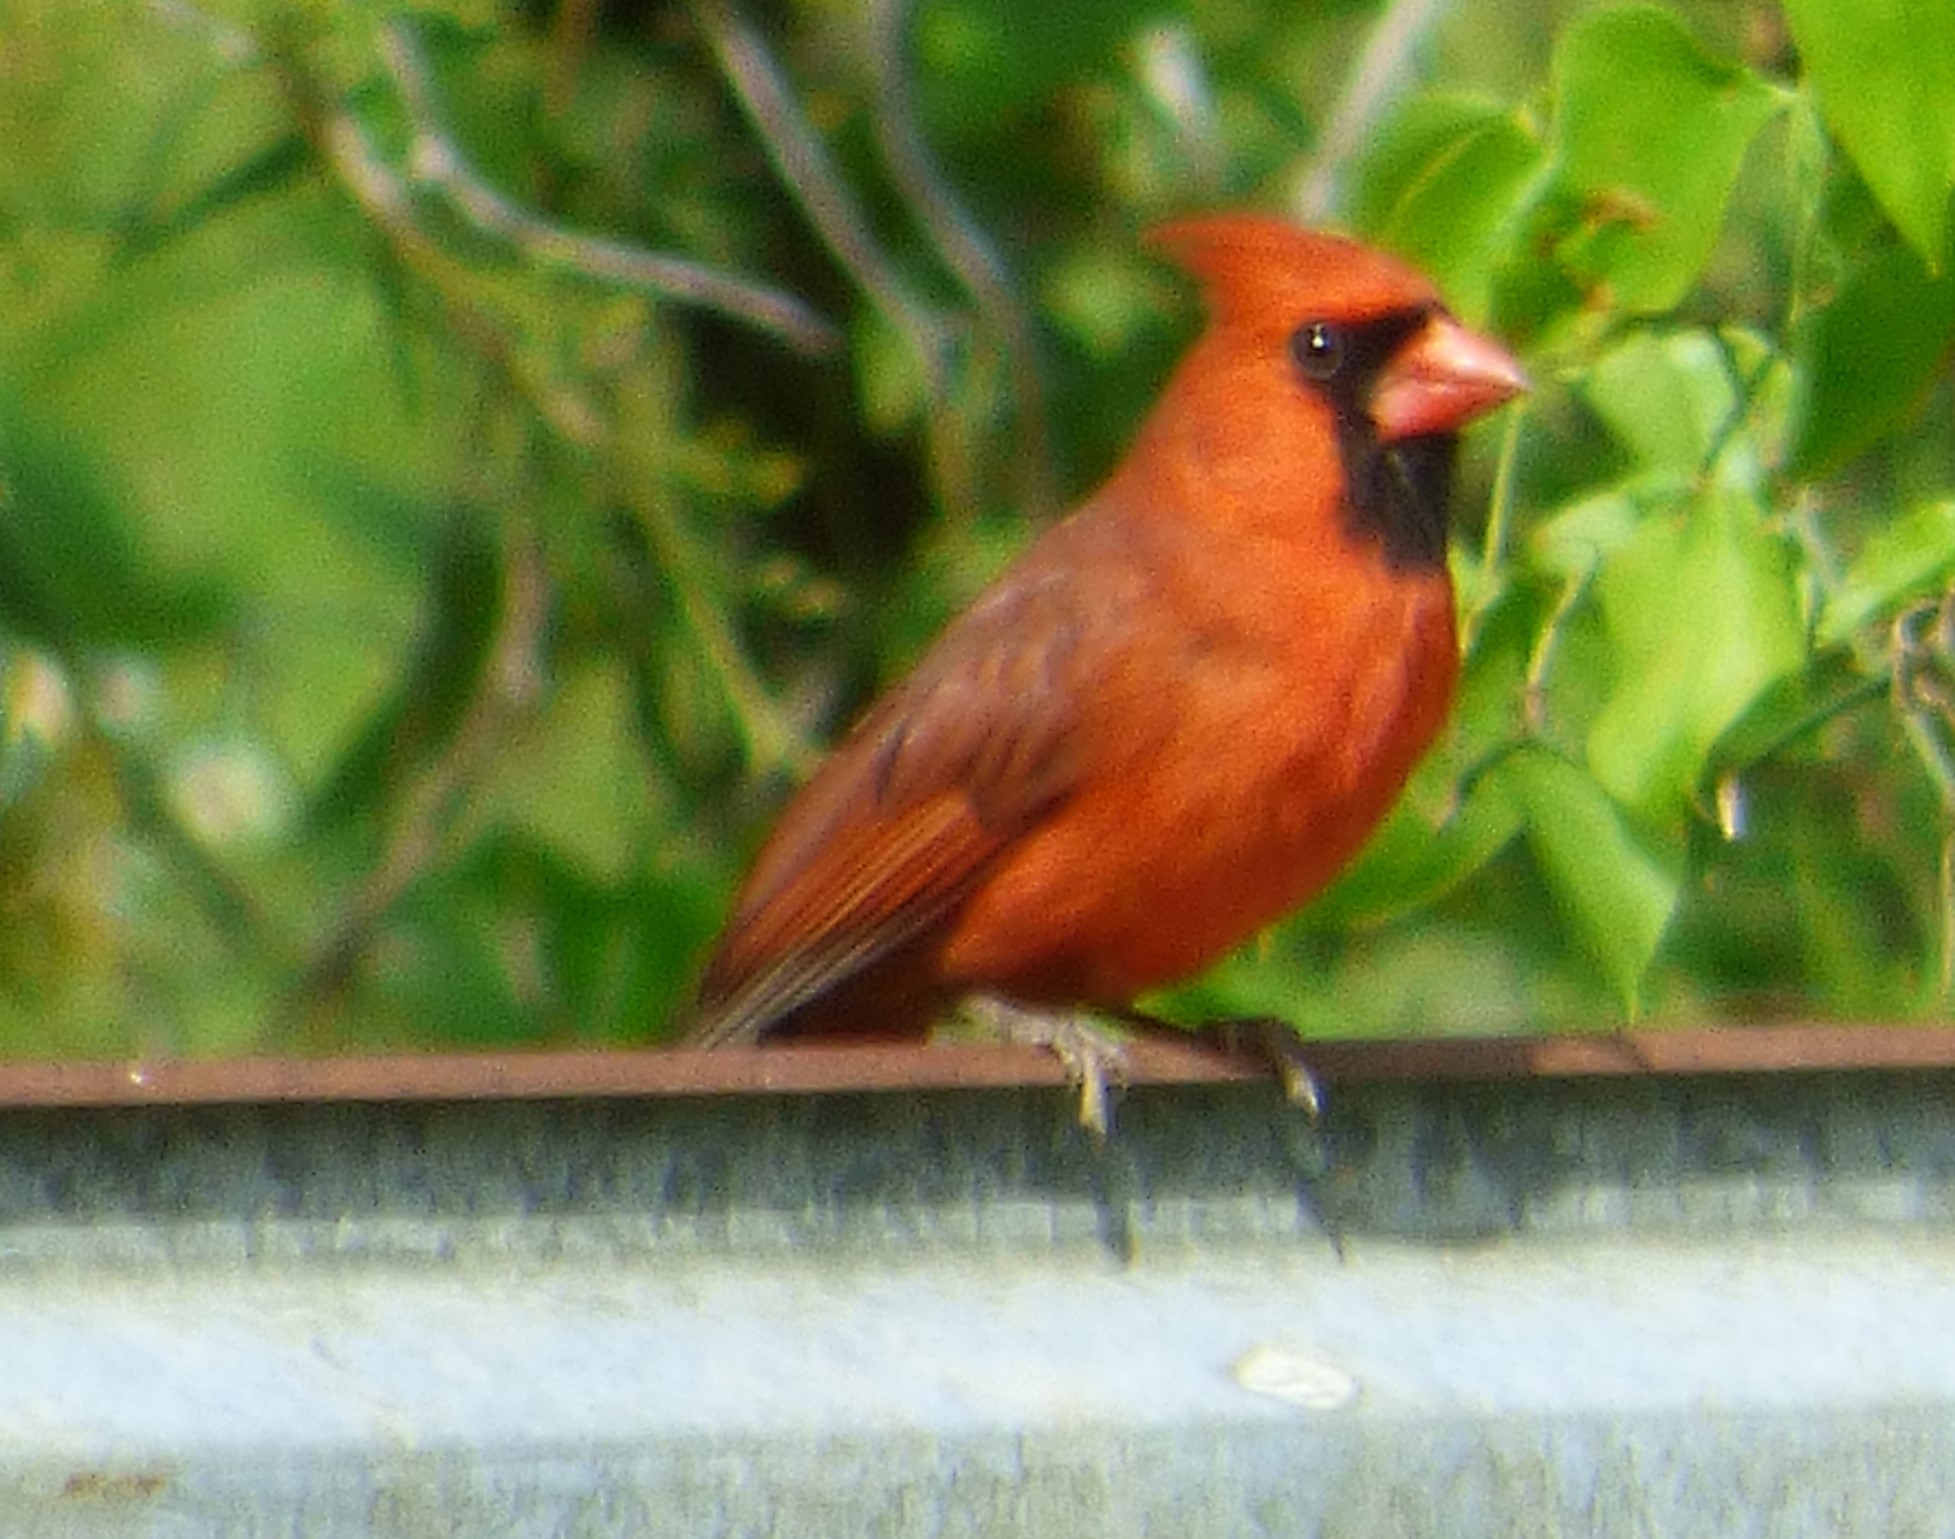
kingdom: Animalia
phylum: Chordata
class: Aves
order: Passeriformes
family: Cardinalidae
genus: Cardinalis
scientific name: Cardinalis cardinalis
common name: Northern cardinal
